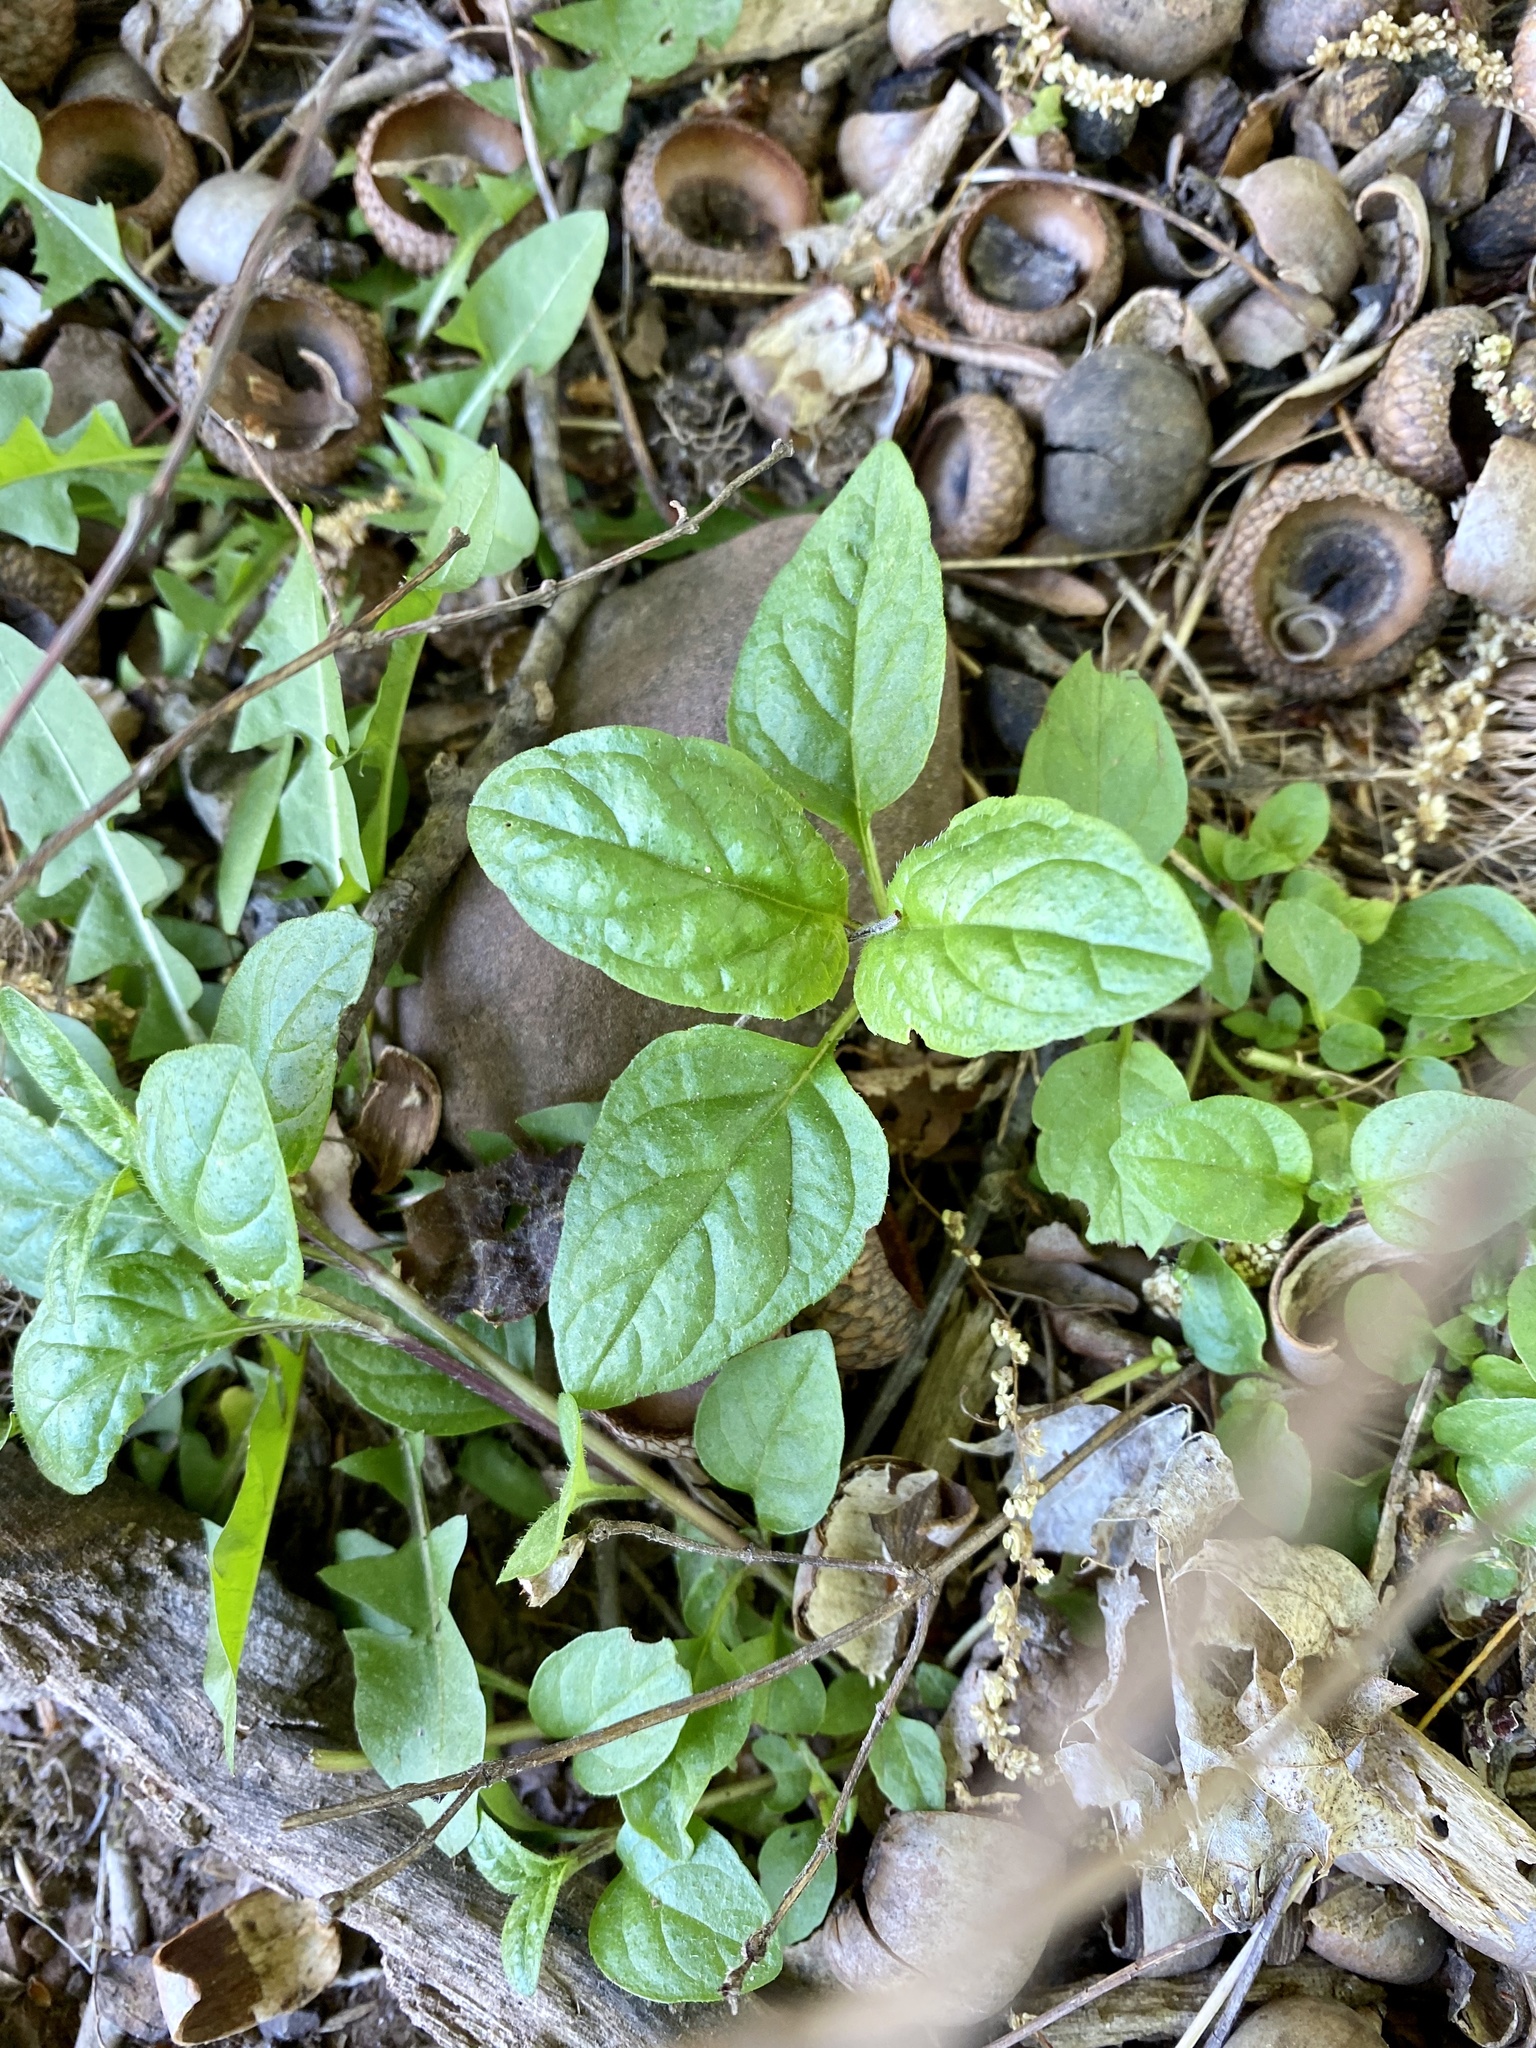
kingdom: Plantae
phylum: Tracheophyta
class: Magnoliopsida
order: Lamiales
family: Lamiaceae
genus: Prunella
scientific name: Prunella vulgaris
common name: Heal-all
